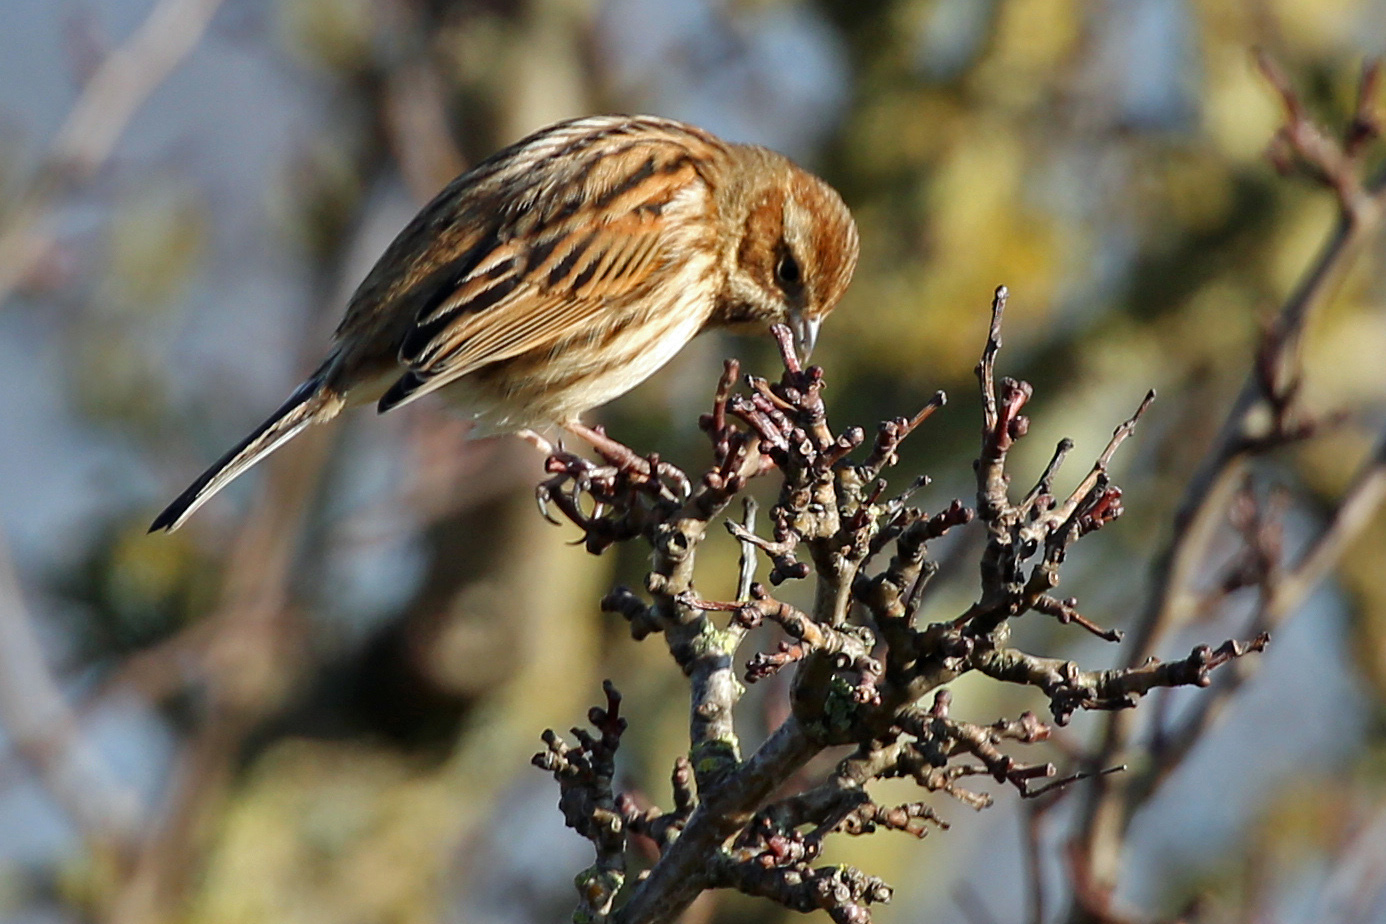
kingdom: Animalia
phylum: Chordata
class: Aves
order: Passeriformes
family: Emberizidae
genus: Emberiza
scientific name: Emberiza schoeniclus
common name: Reed bunting
